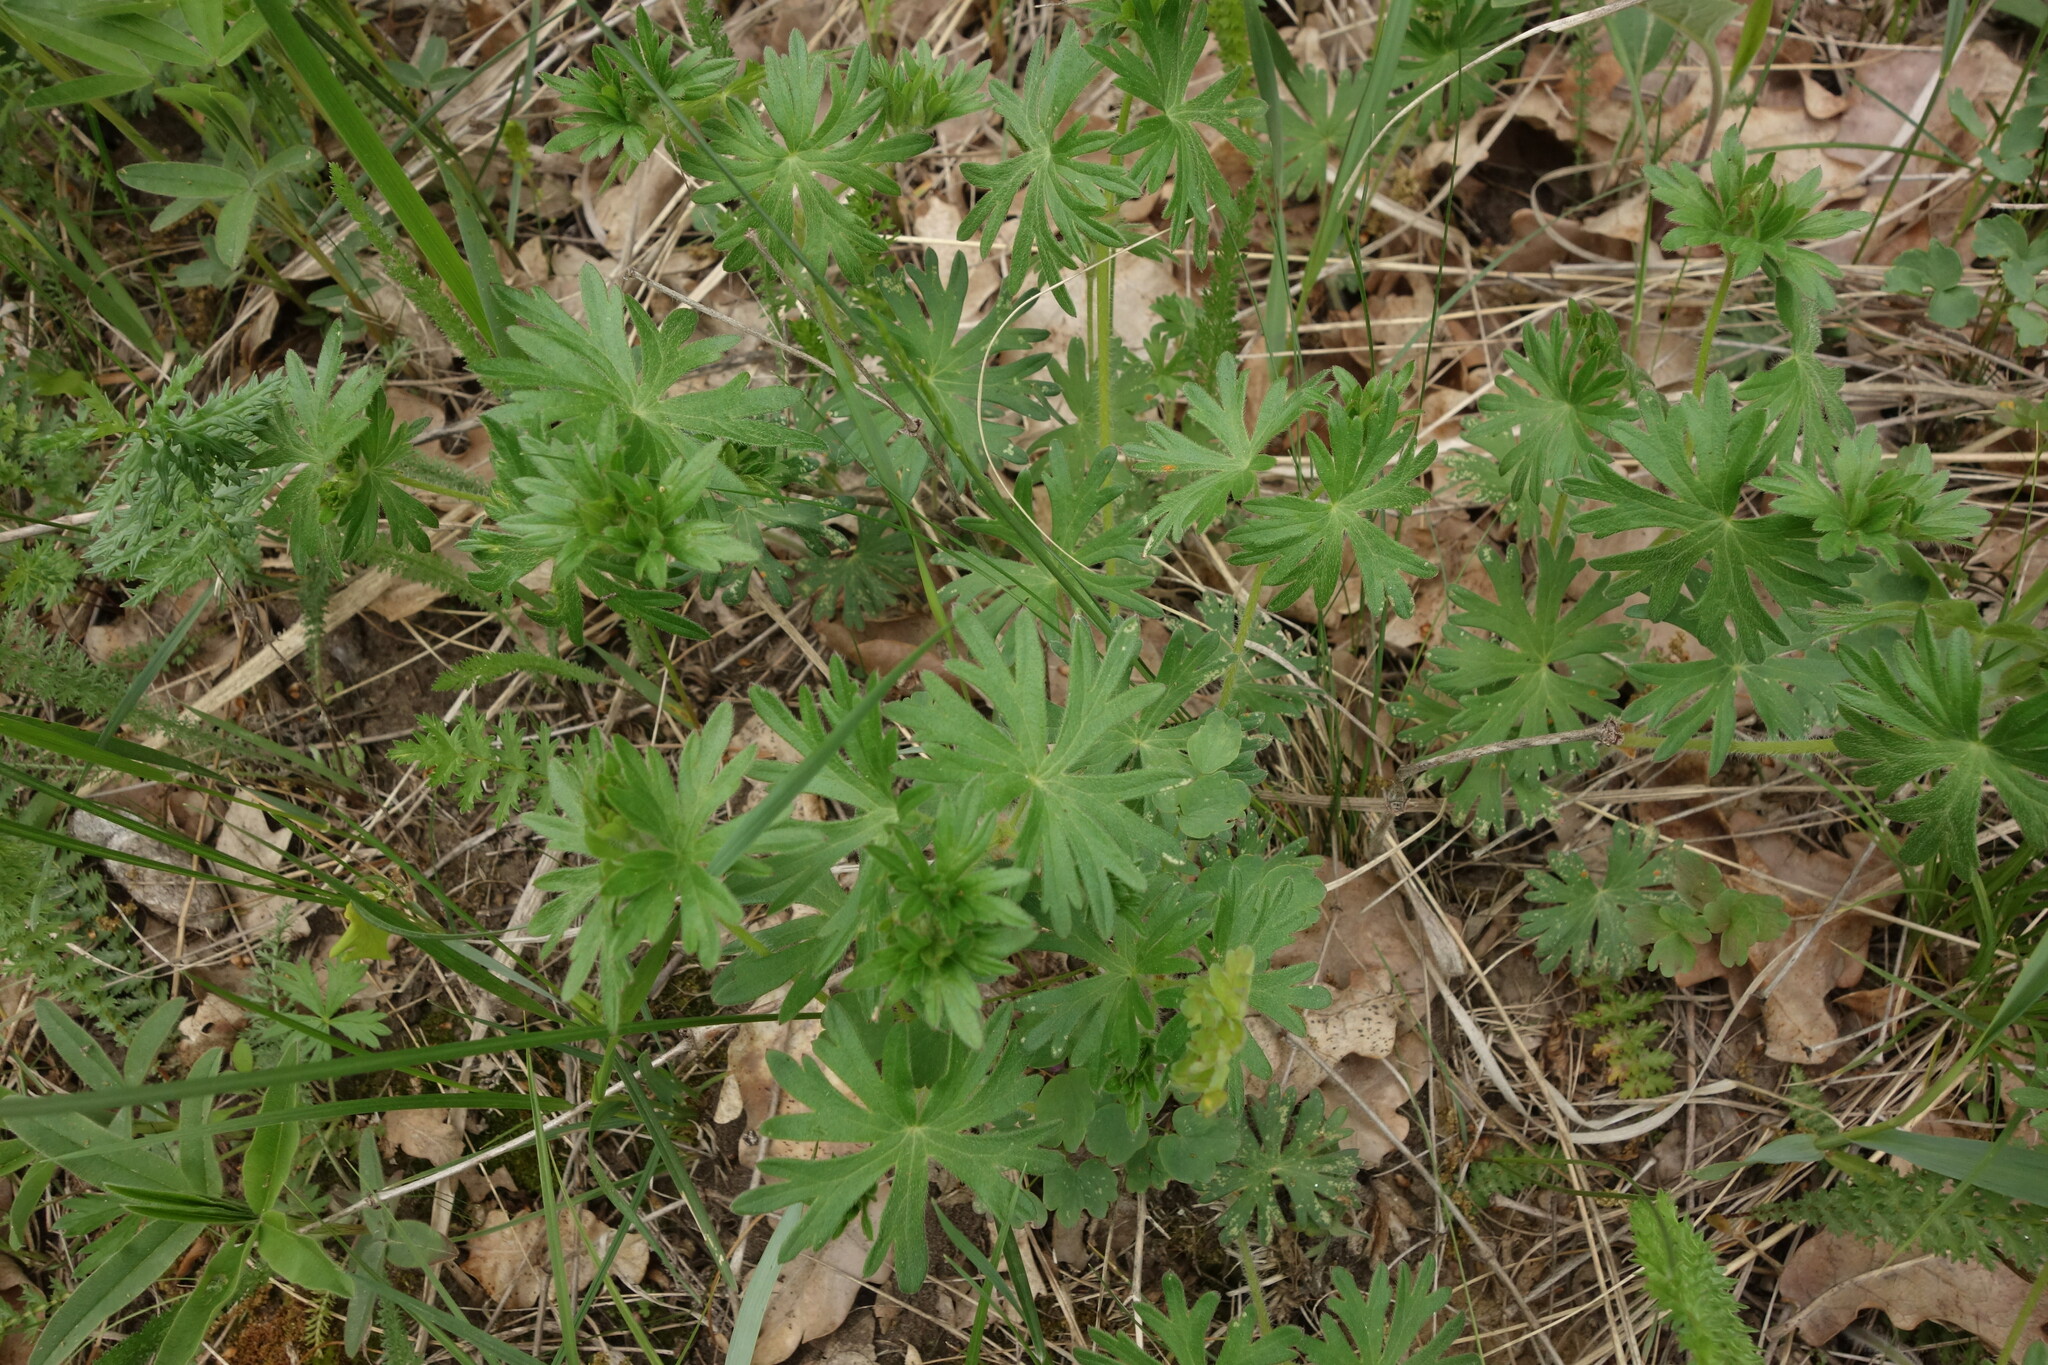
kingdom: Plantae
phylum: Tracheophyta
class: Magnoliopsida
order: Geraniales
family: Geraniaceae
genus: Geranium
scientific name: Geranium sanguineum
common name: Bloody crane's-bill
